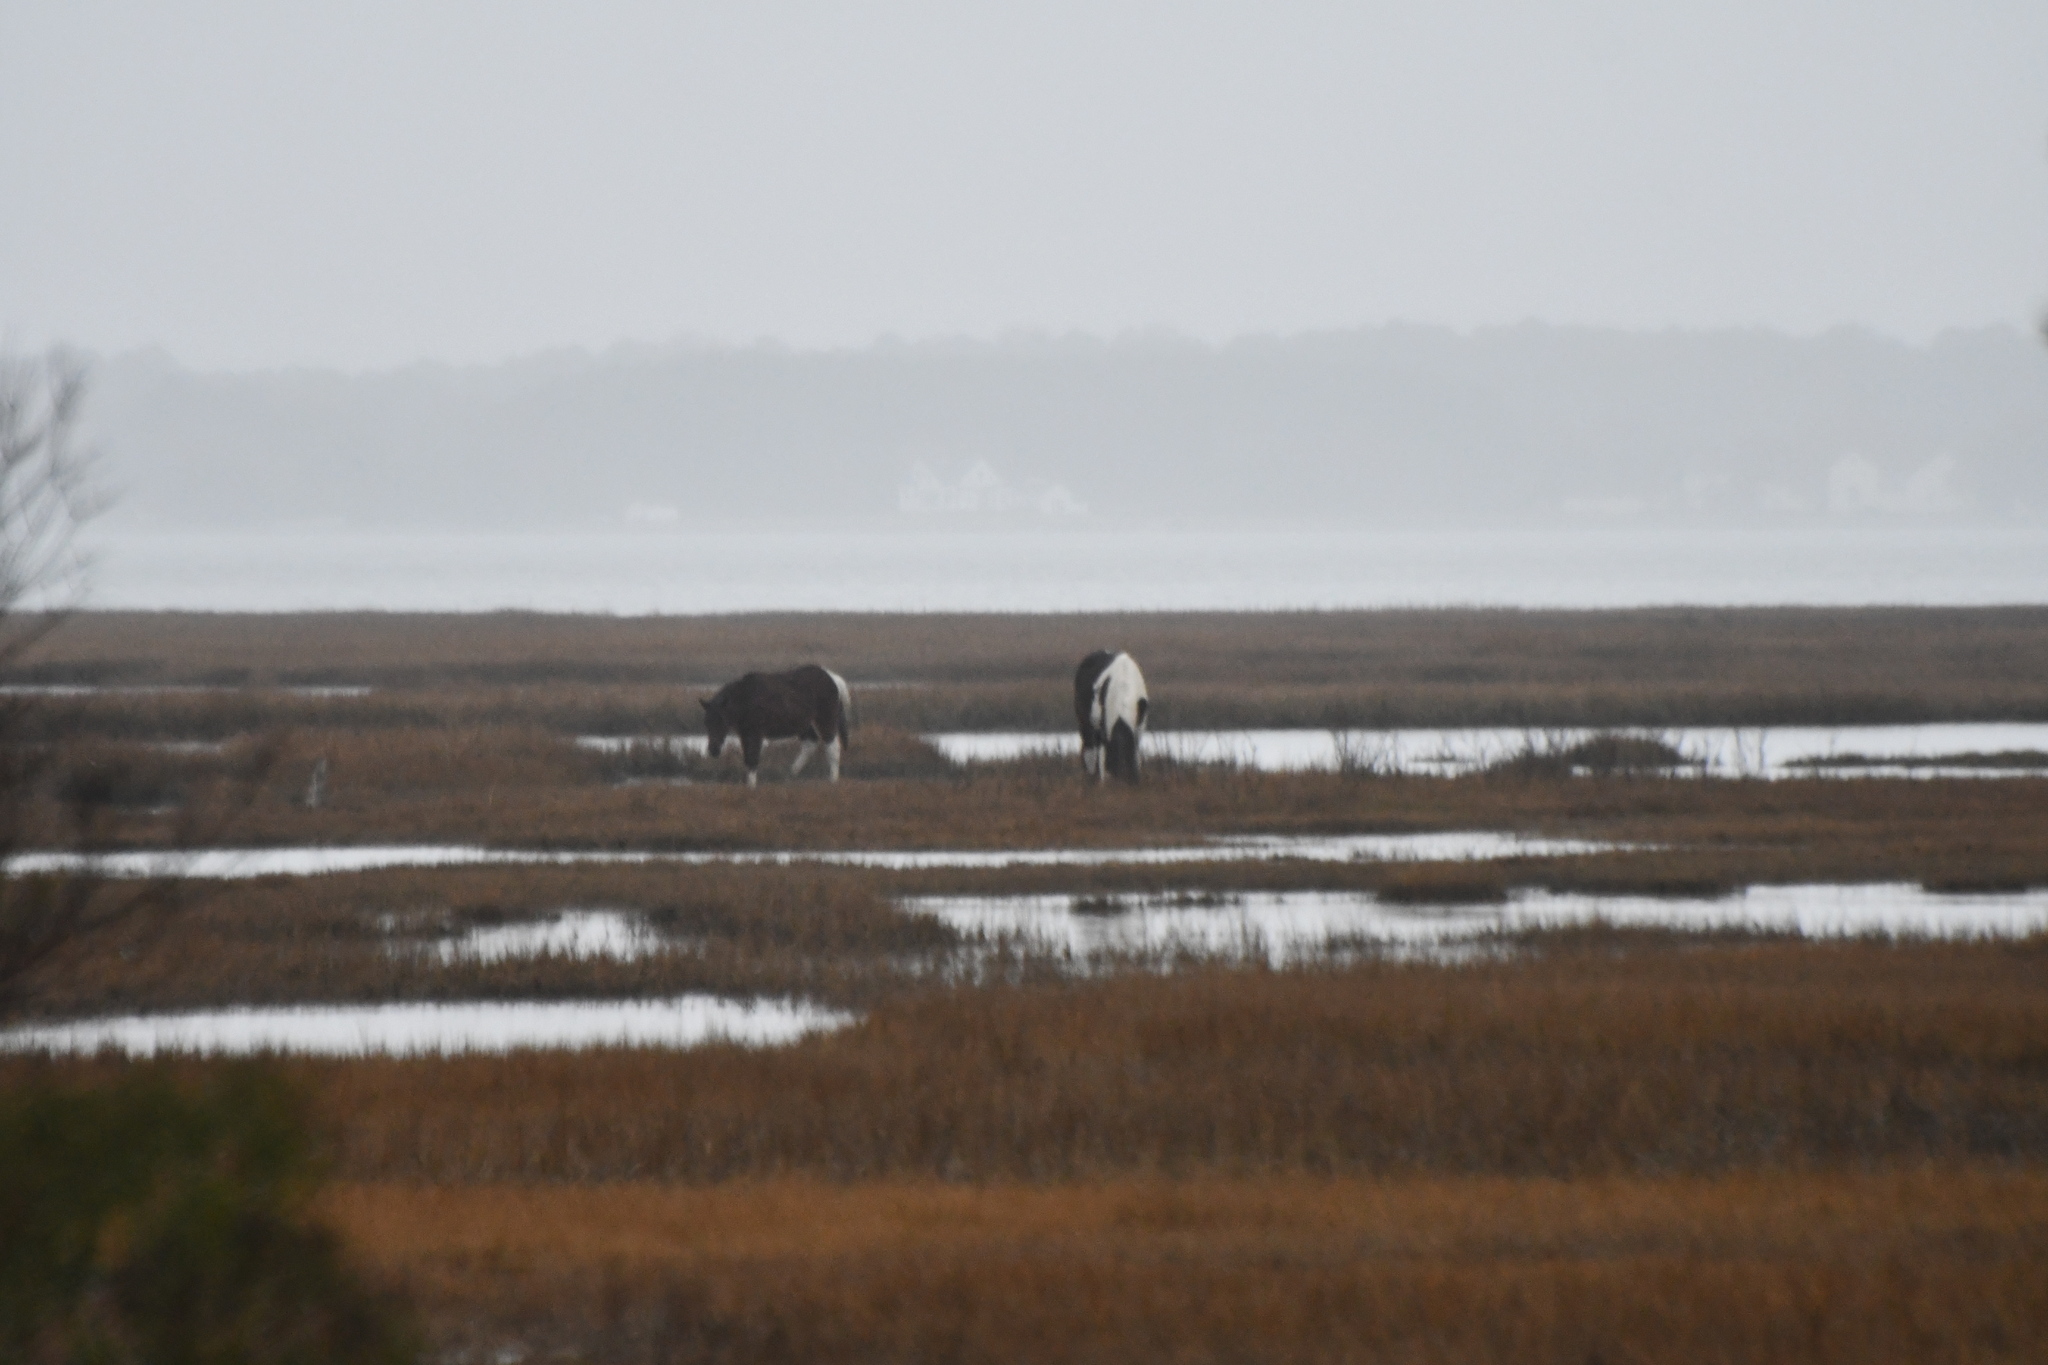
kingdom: Animalia
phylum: Chordata
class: Mammalia
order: Perissodactyla
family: Equidae
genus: Equus
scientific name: Equus caballus
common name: Horse
